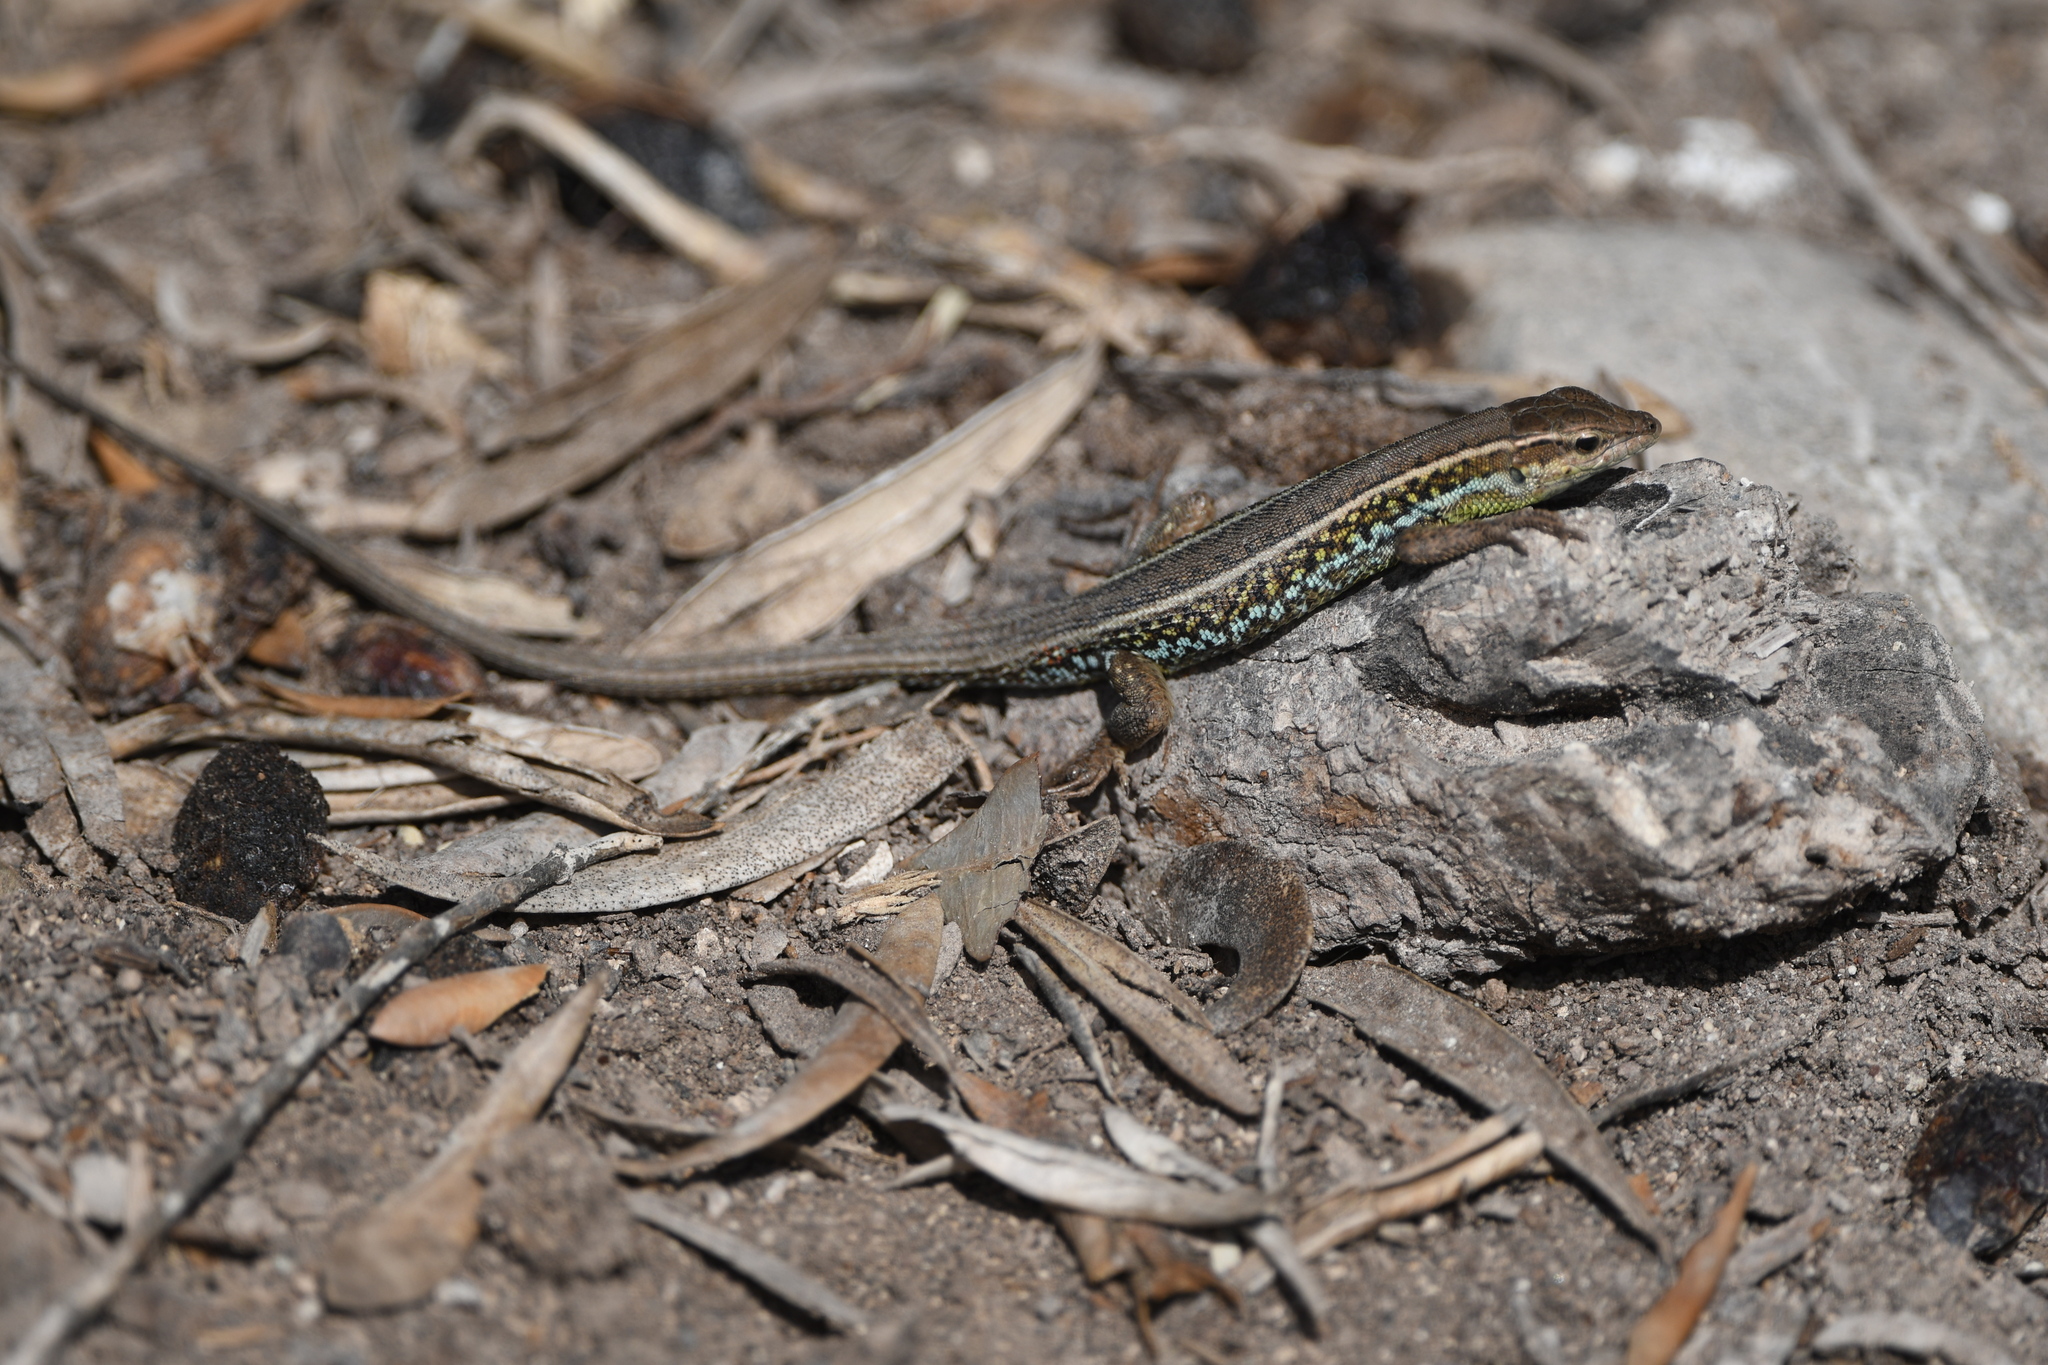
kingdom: Animalia
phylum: Chordata
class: Squamata
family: Lacertidae
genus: Ophisops
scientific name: Ophisops elegans
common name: Snake-eyed lizard
